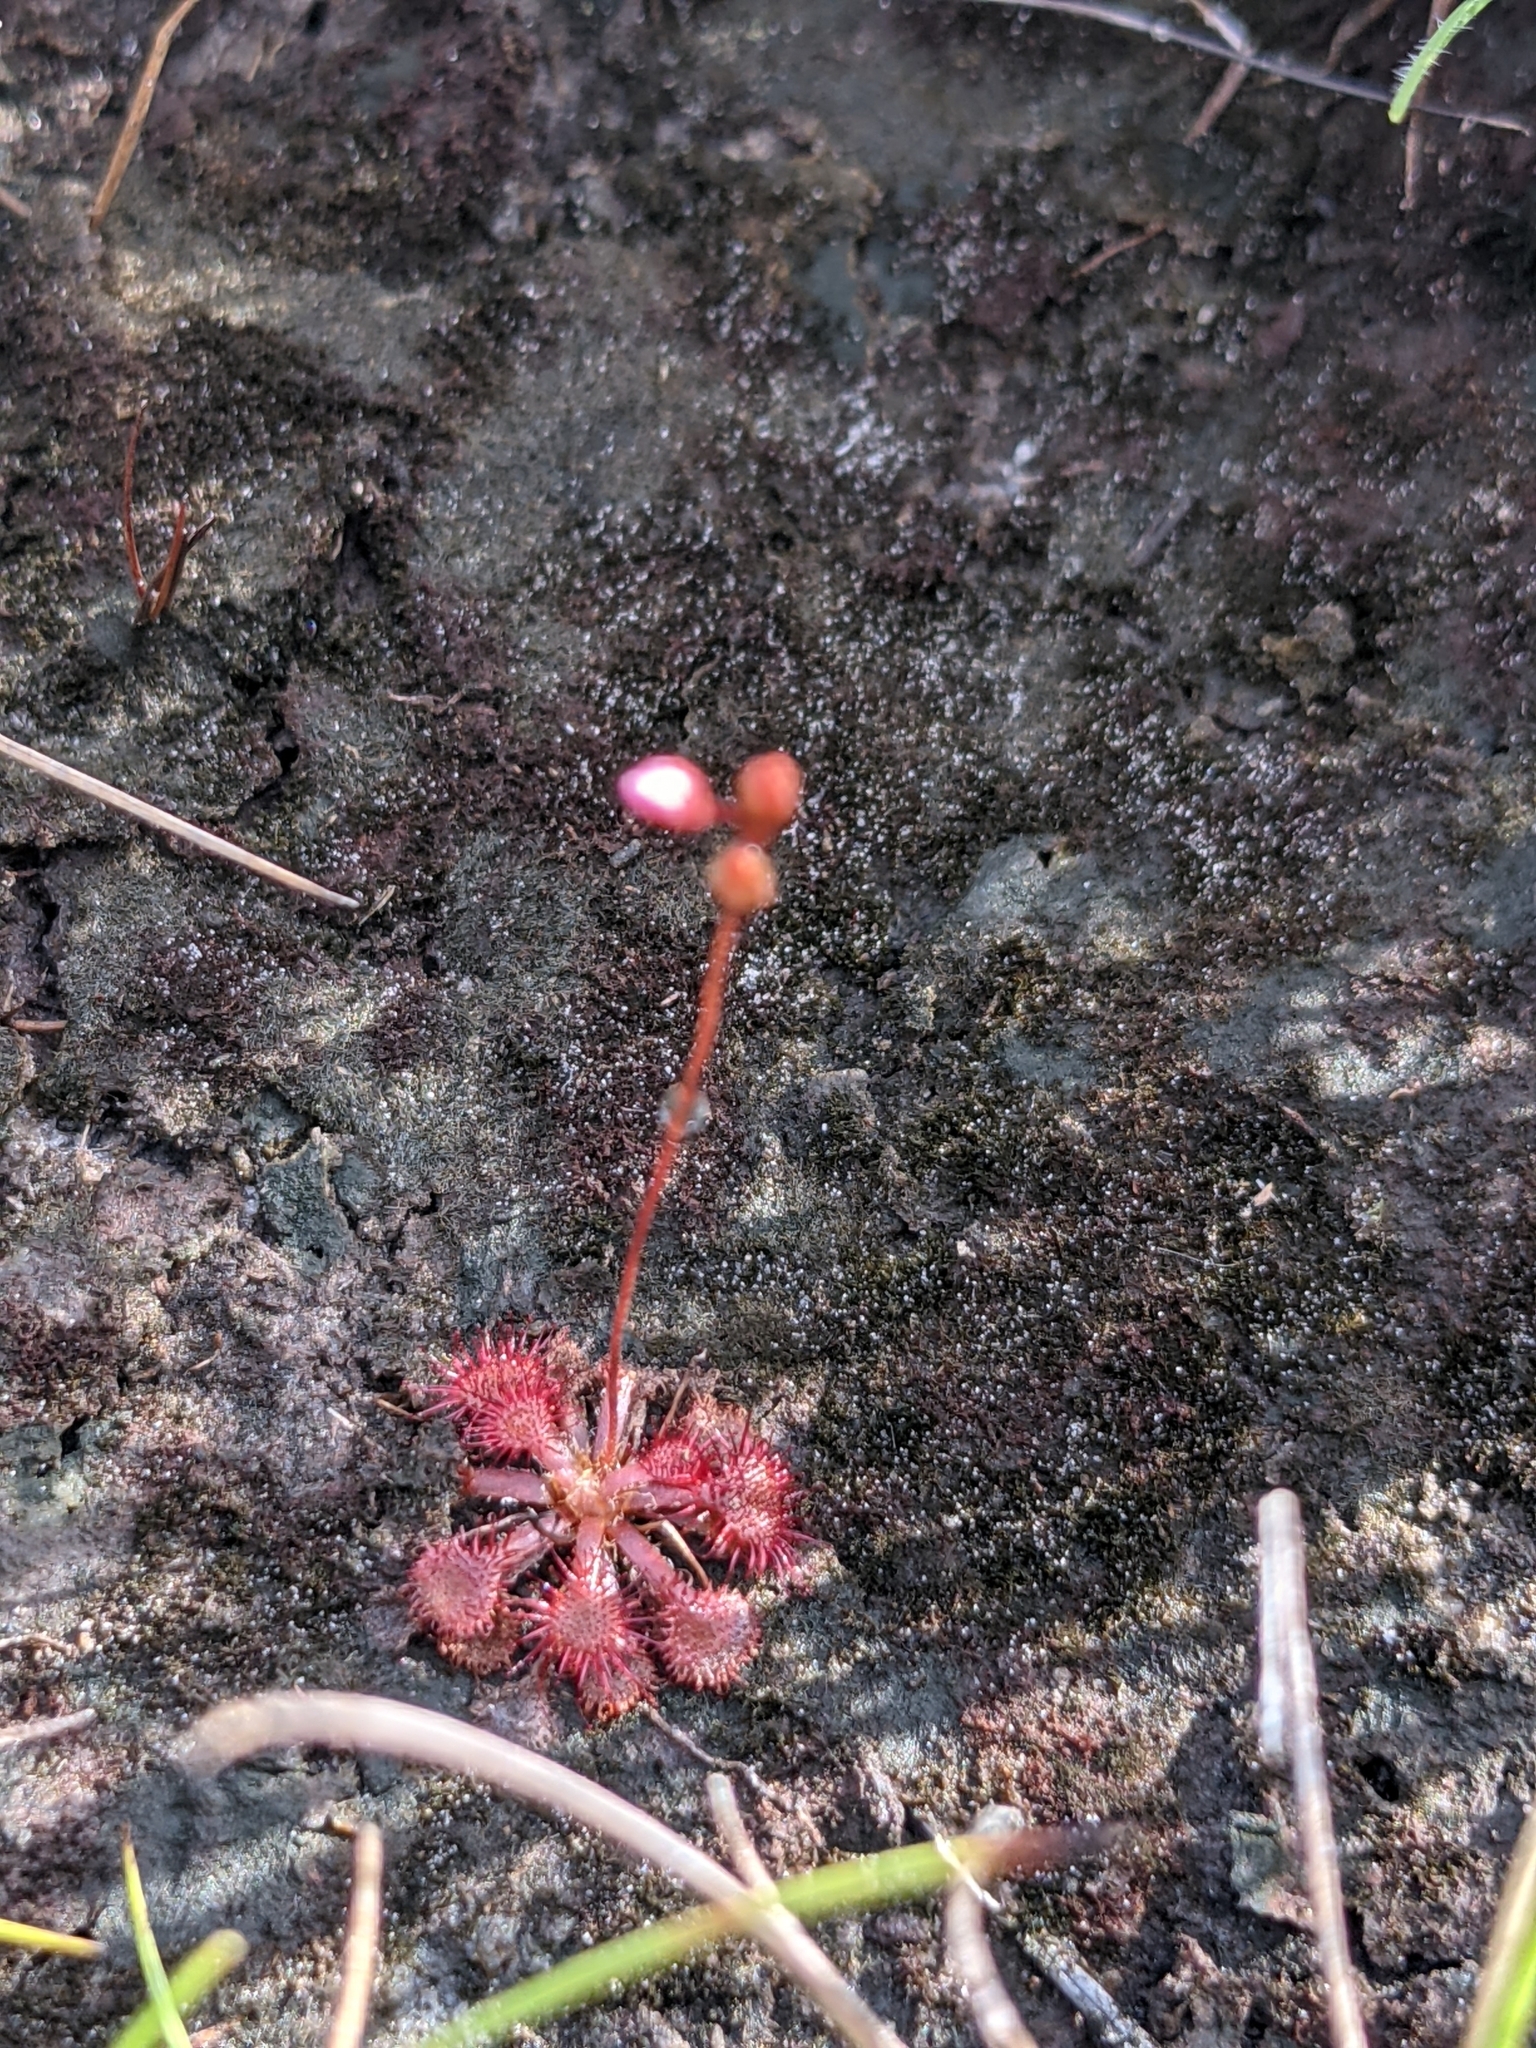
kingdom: Plantae
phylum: Tracheophyta
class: Magnoliopsida
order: Caryophyllales
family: Droseraceae
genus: Drosera
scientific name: Drosera capillaris
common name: Pink sundew
